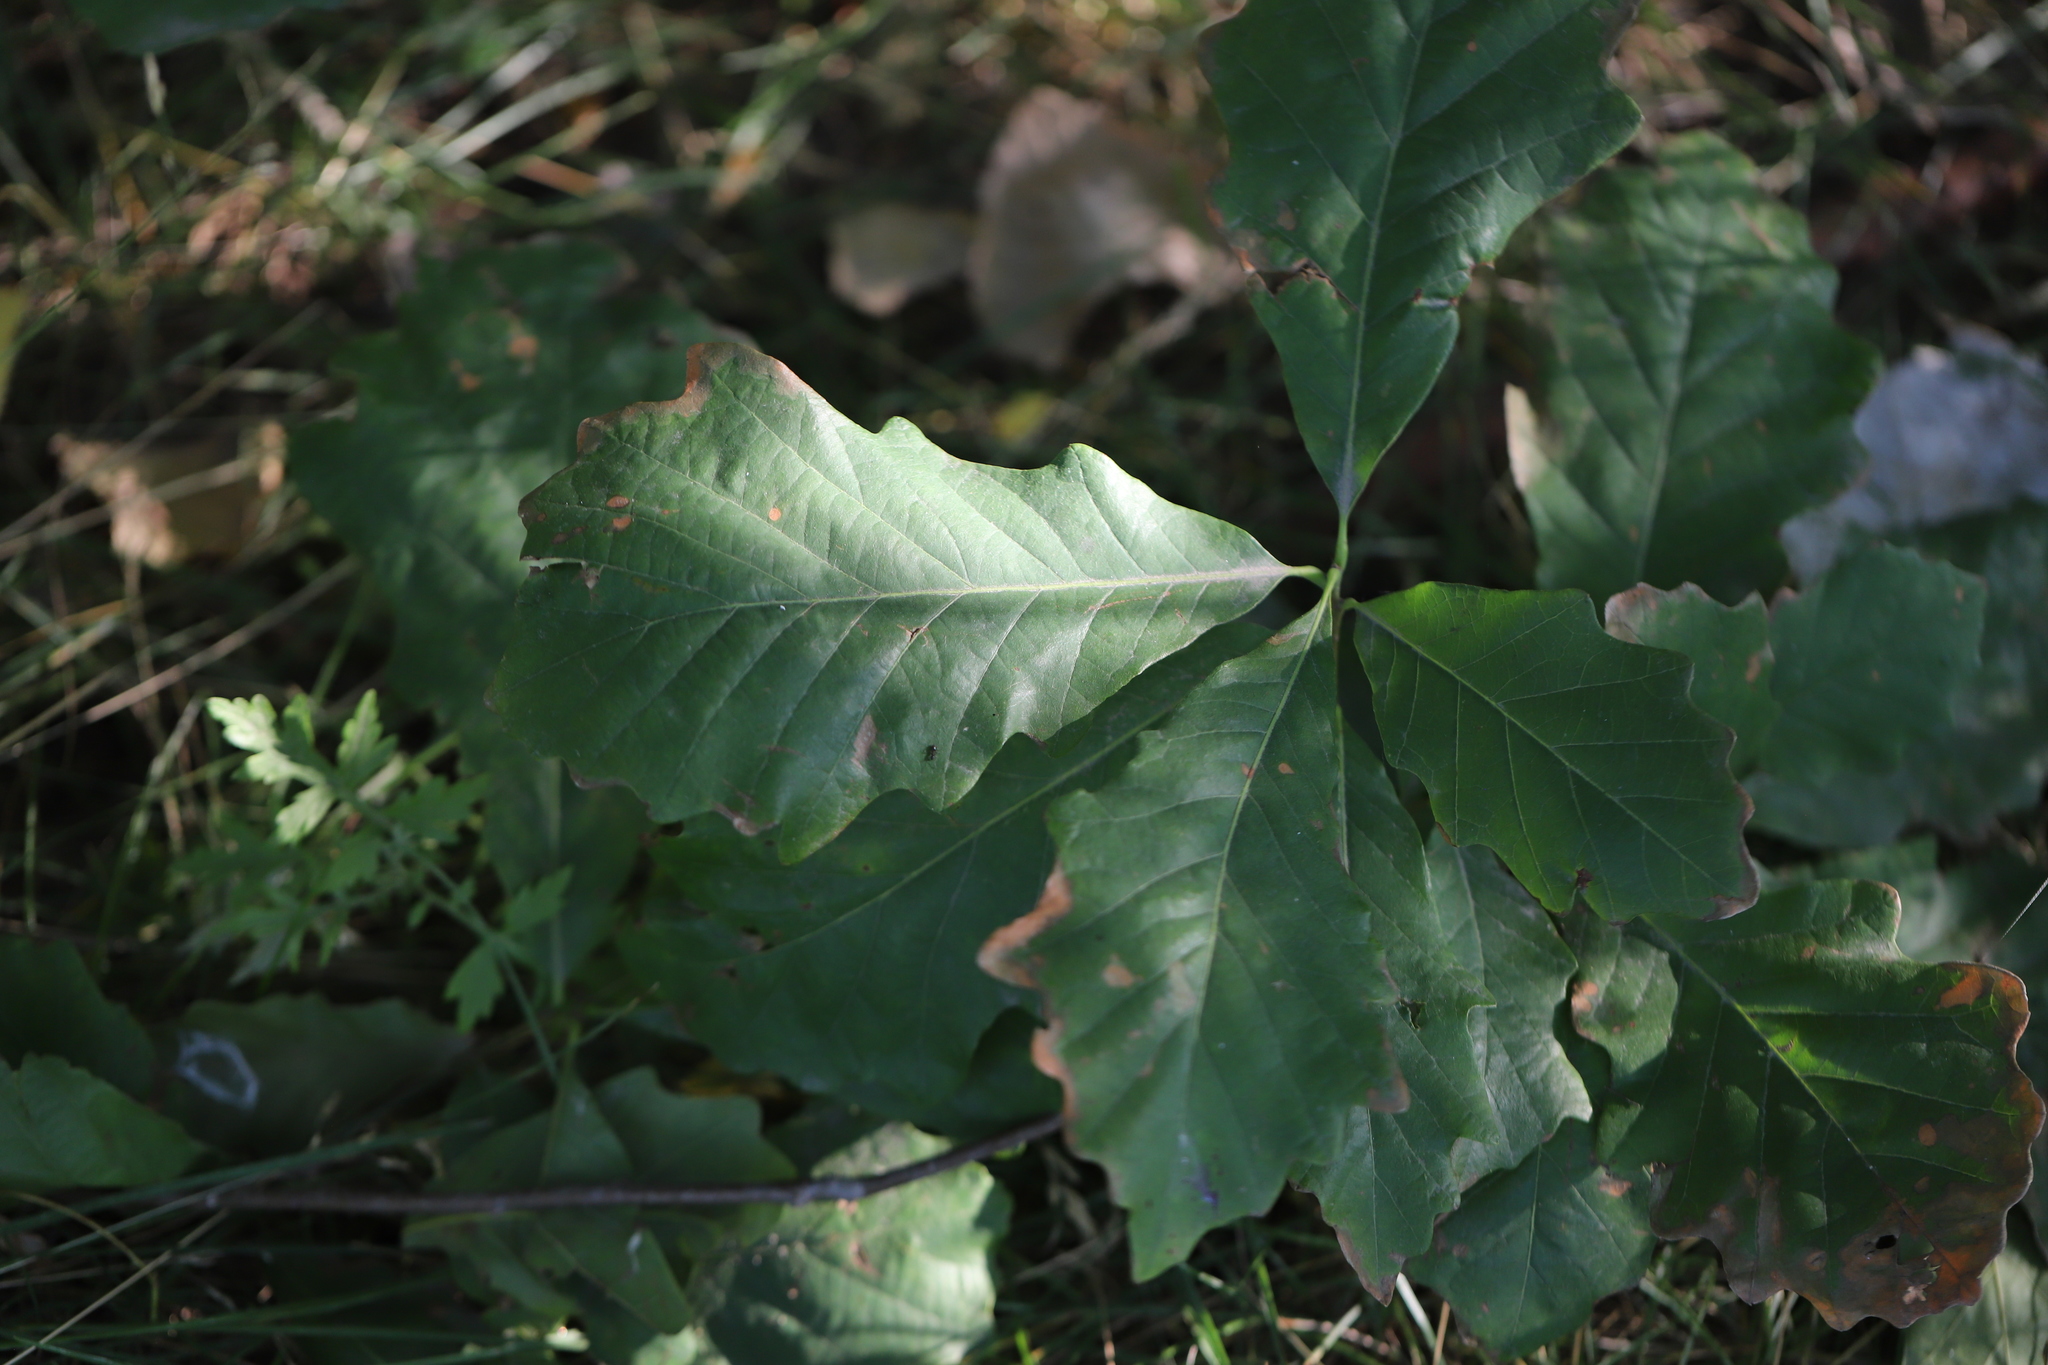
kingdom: Plantae
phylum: Tracheophyta
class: Magnoliopsida
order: Fagales
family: Fagaceae
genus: Quercus
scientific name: Quercus bicolor
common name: Swamp white oak
